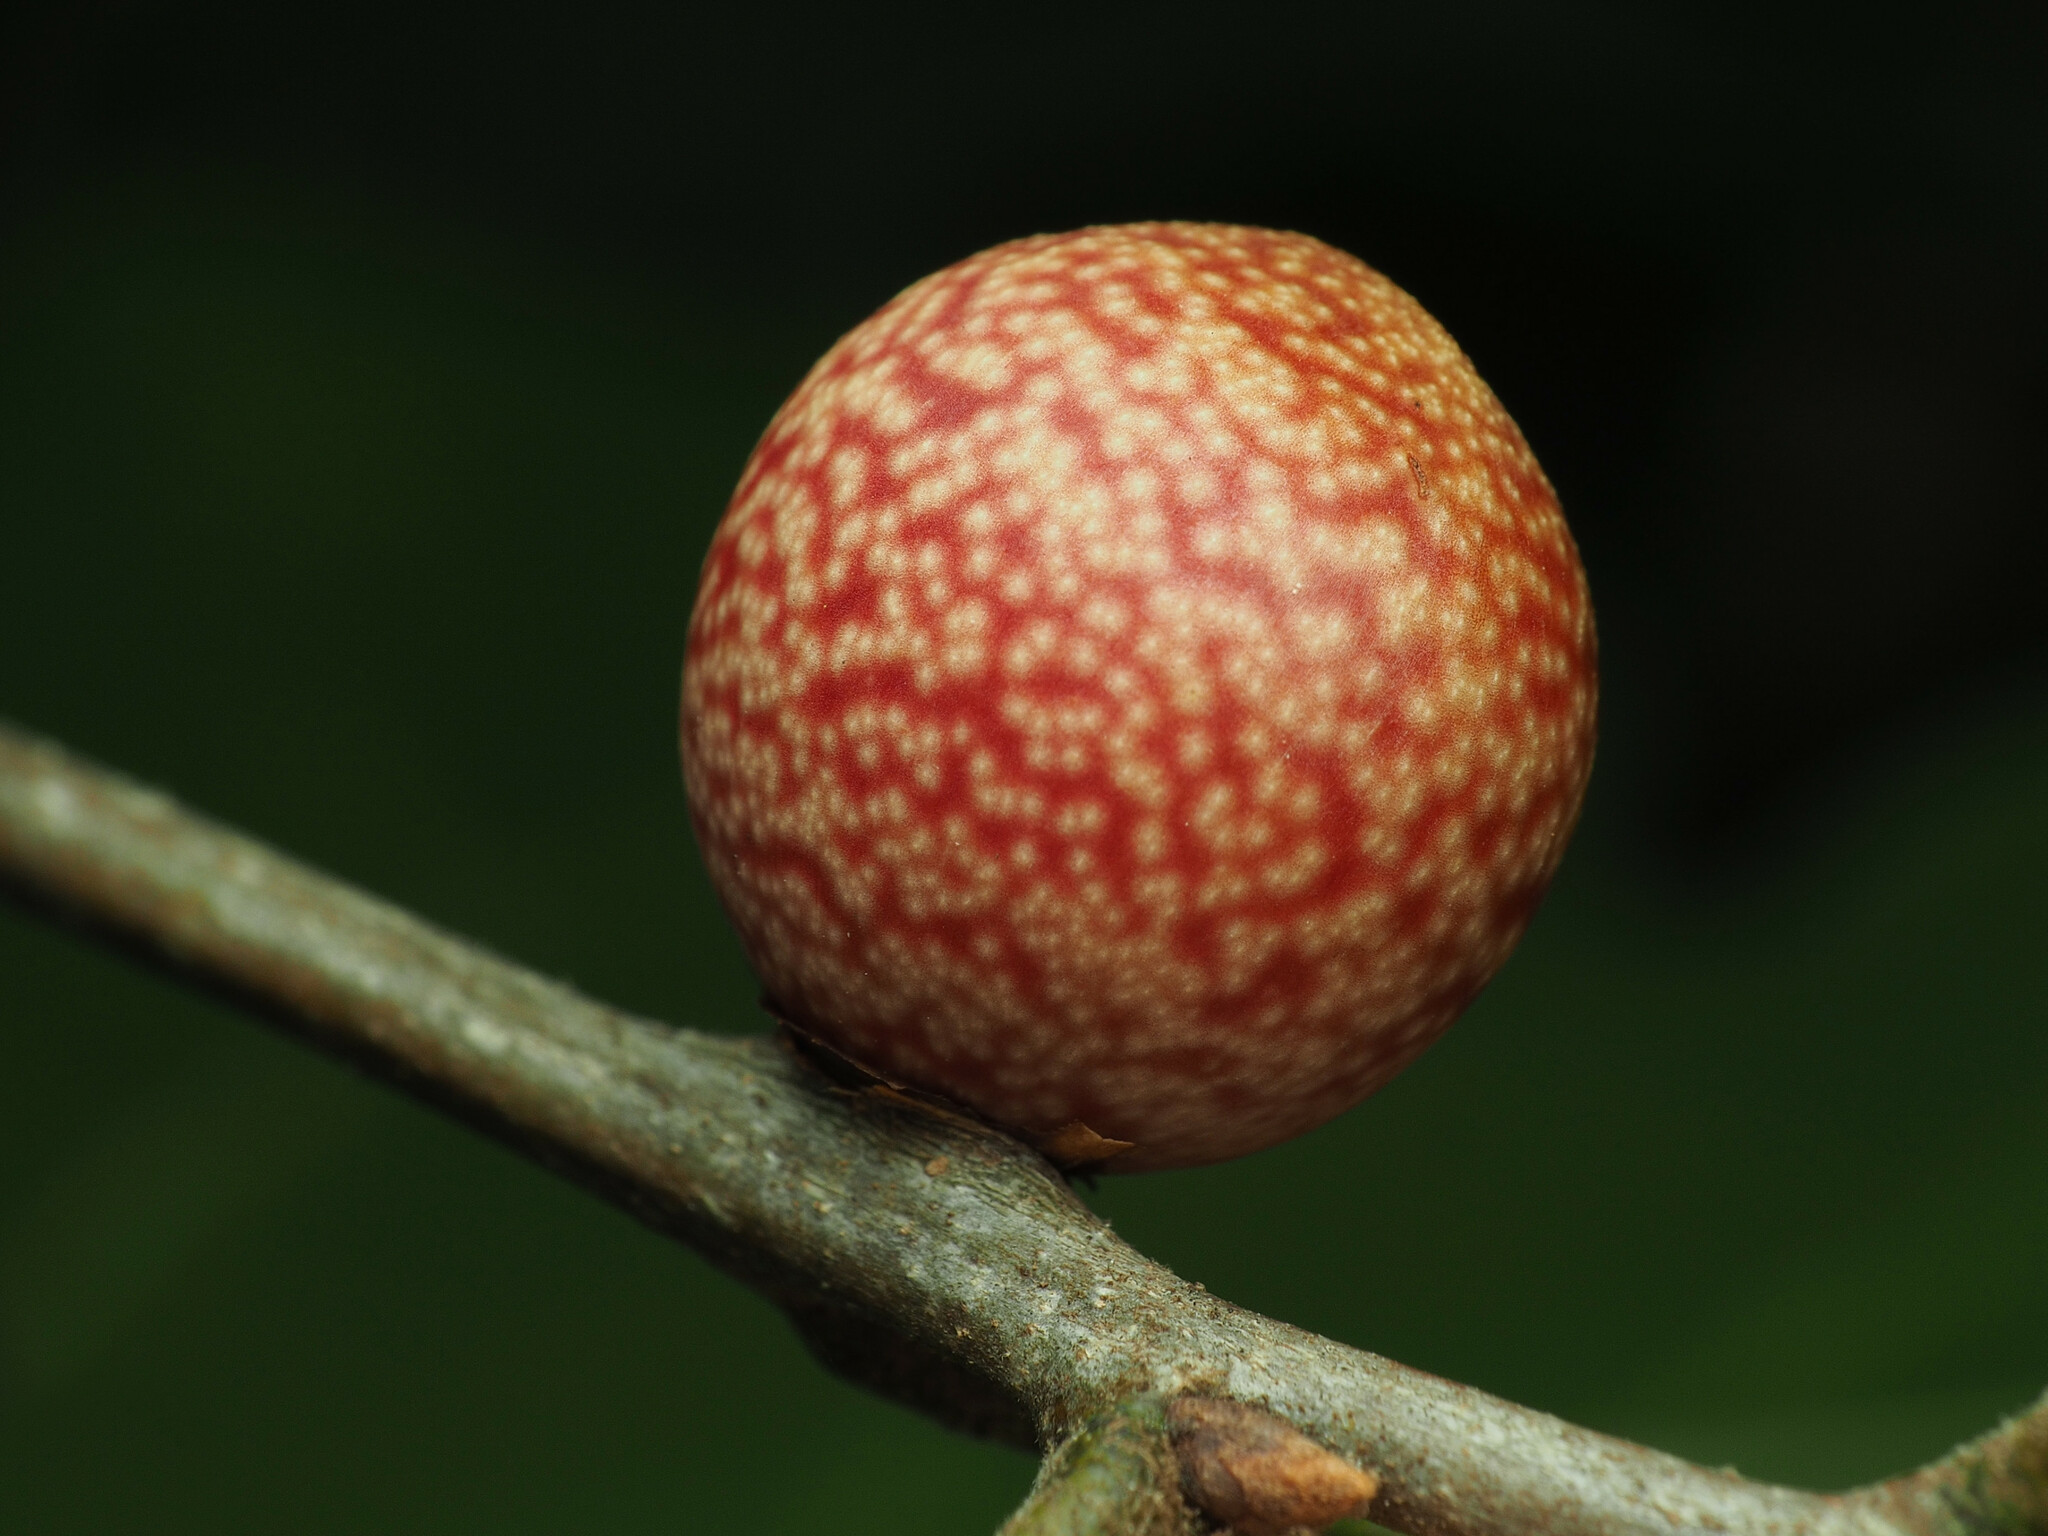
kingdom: Animalia
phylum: Arthropoda
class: Insecta
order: Hymenoptera
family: Cynipidae
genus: Kokkocynips
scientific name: Kokkocynips imbricariae
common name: Banded bullet gall wasp
